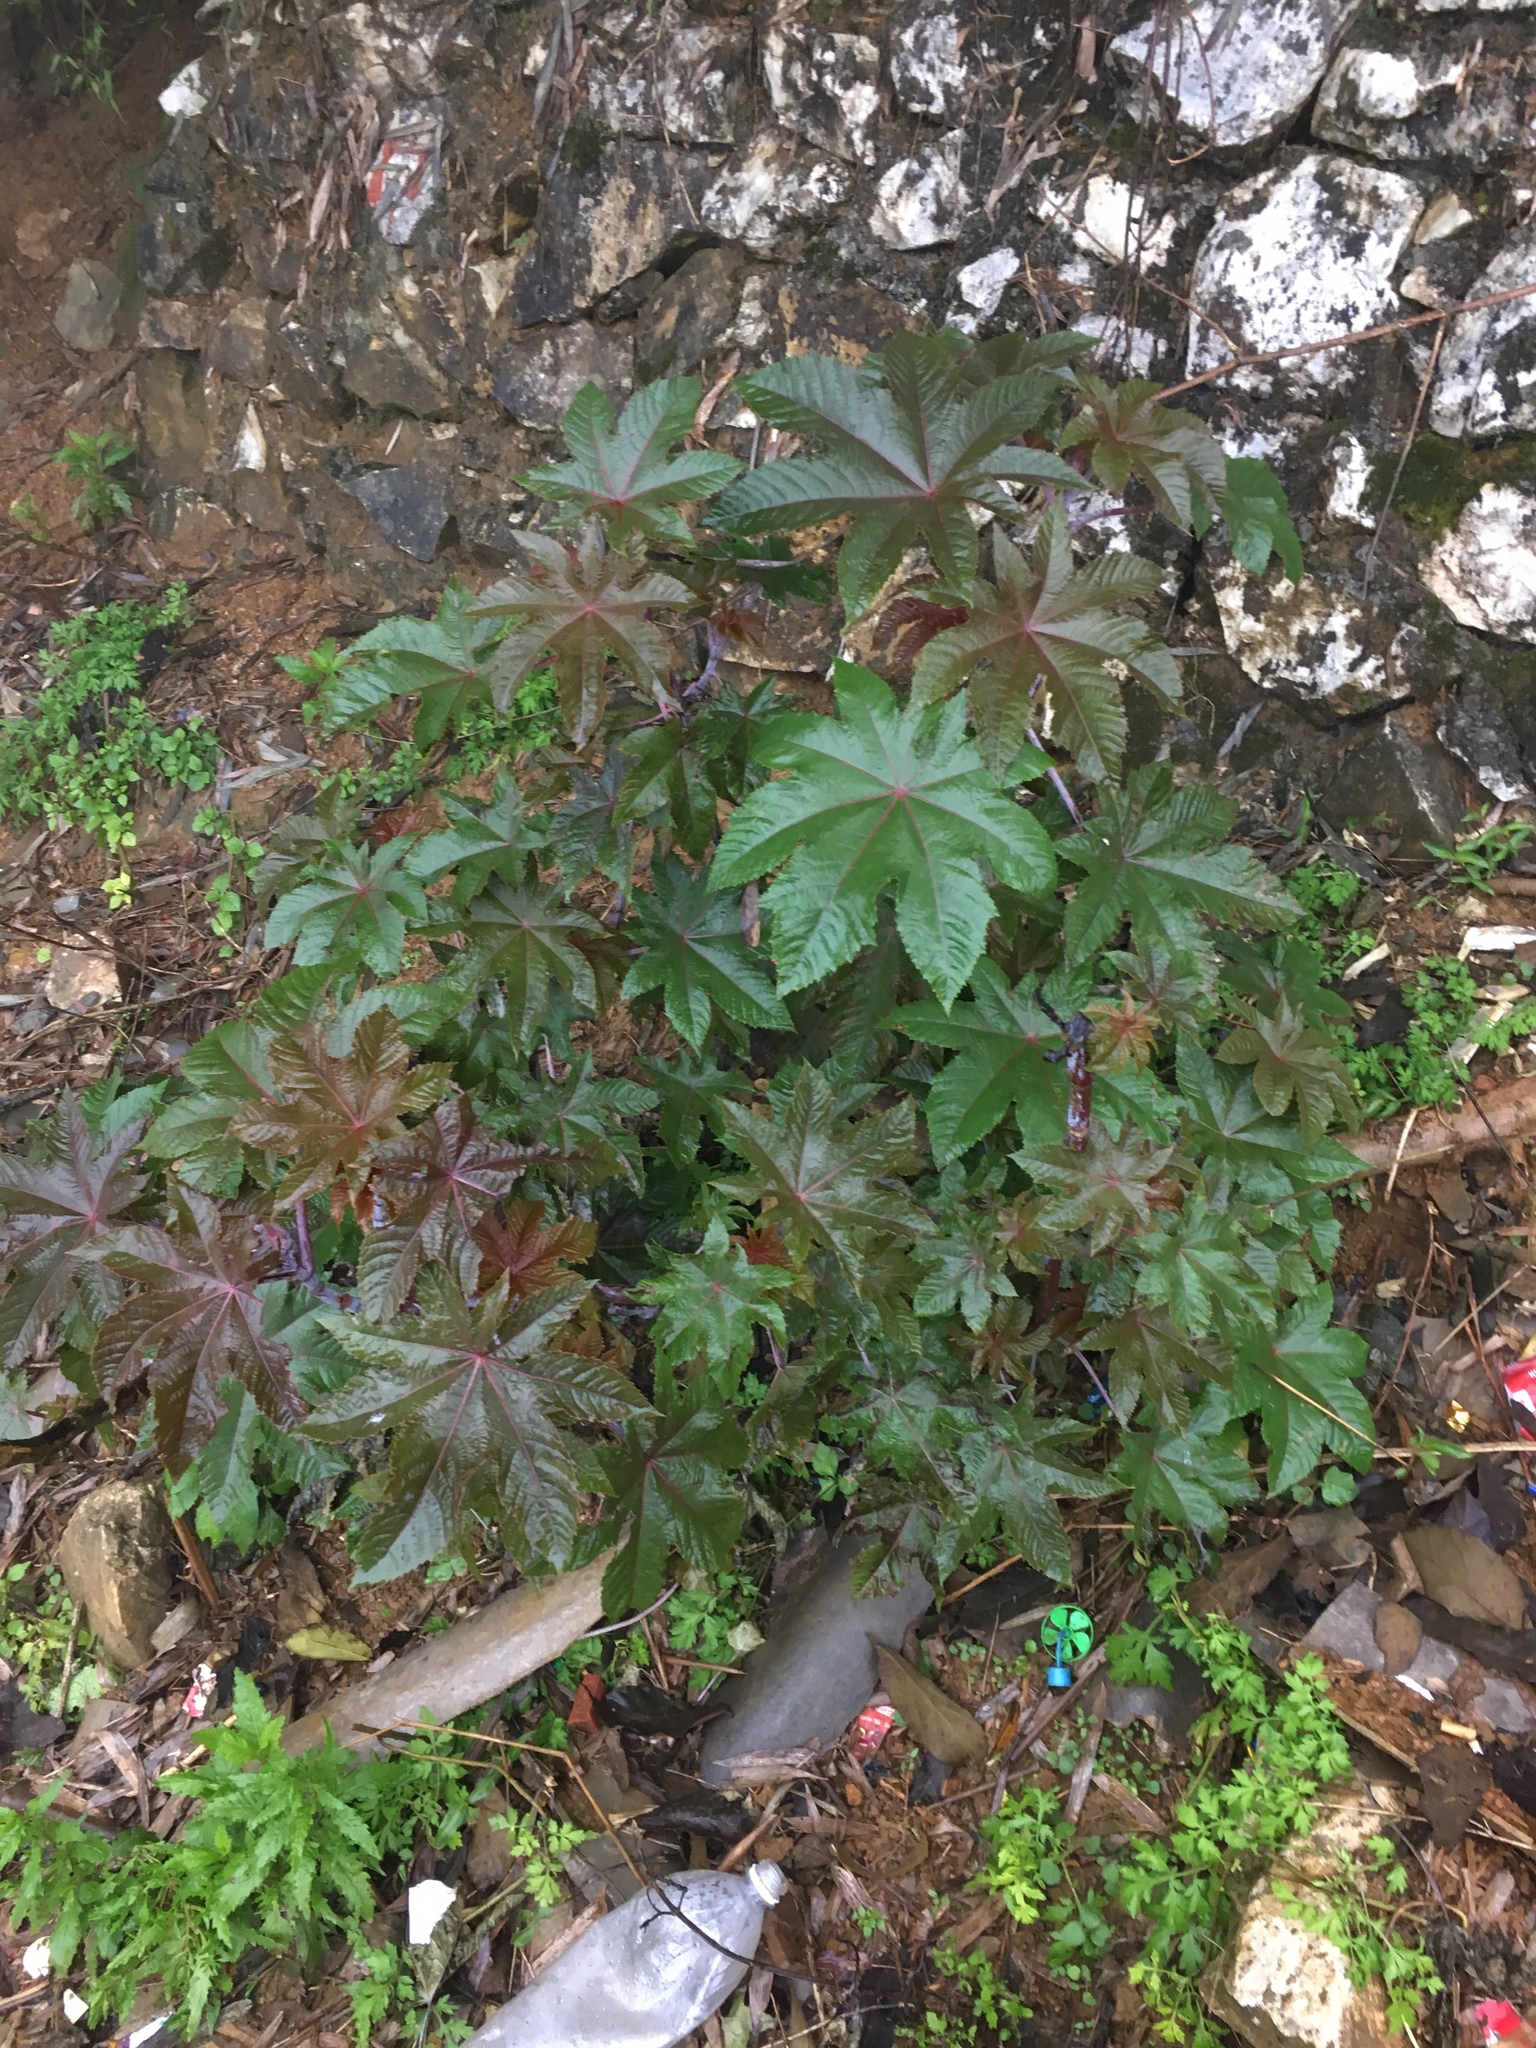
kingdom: Plantae
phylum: Tracheophyta
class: Magnoliopsida
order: Malpighiales
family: Euphorbiaceae
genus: Ricinus
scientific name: Ricinus communis
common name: Castor-oil-plant
